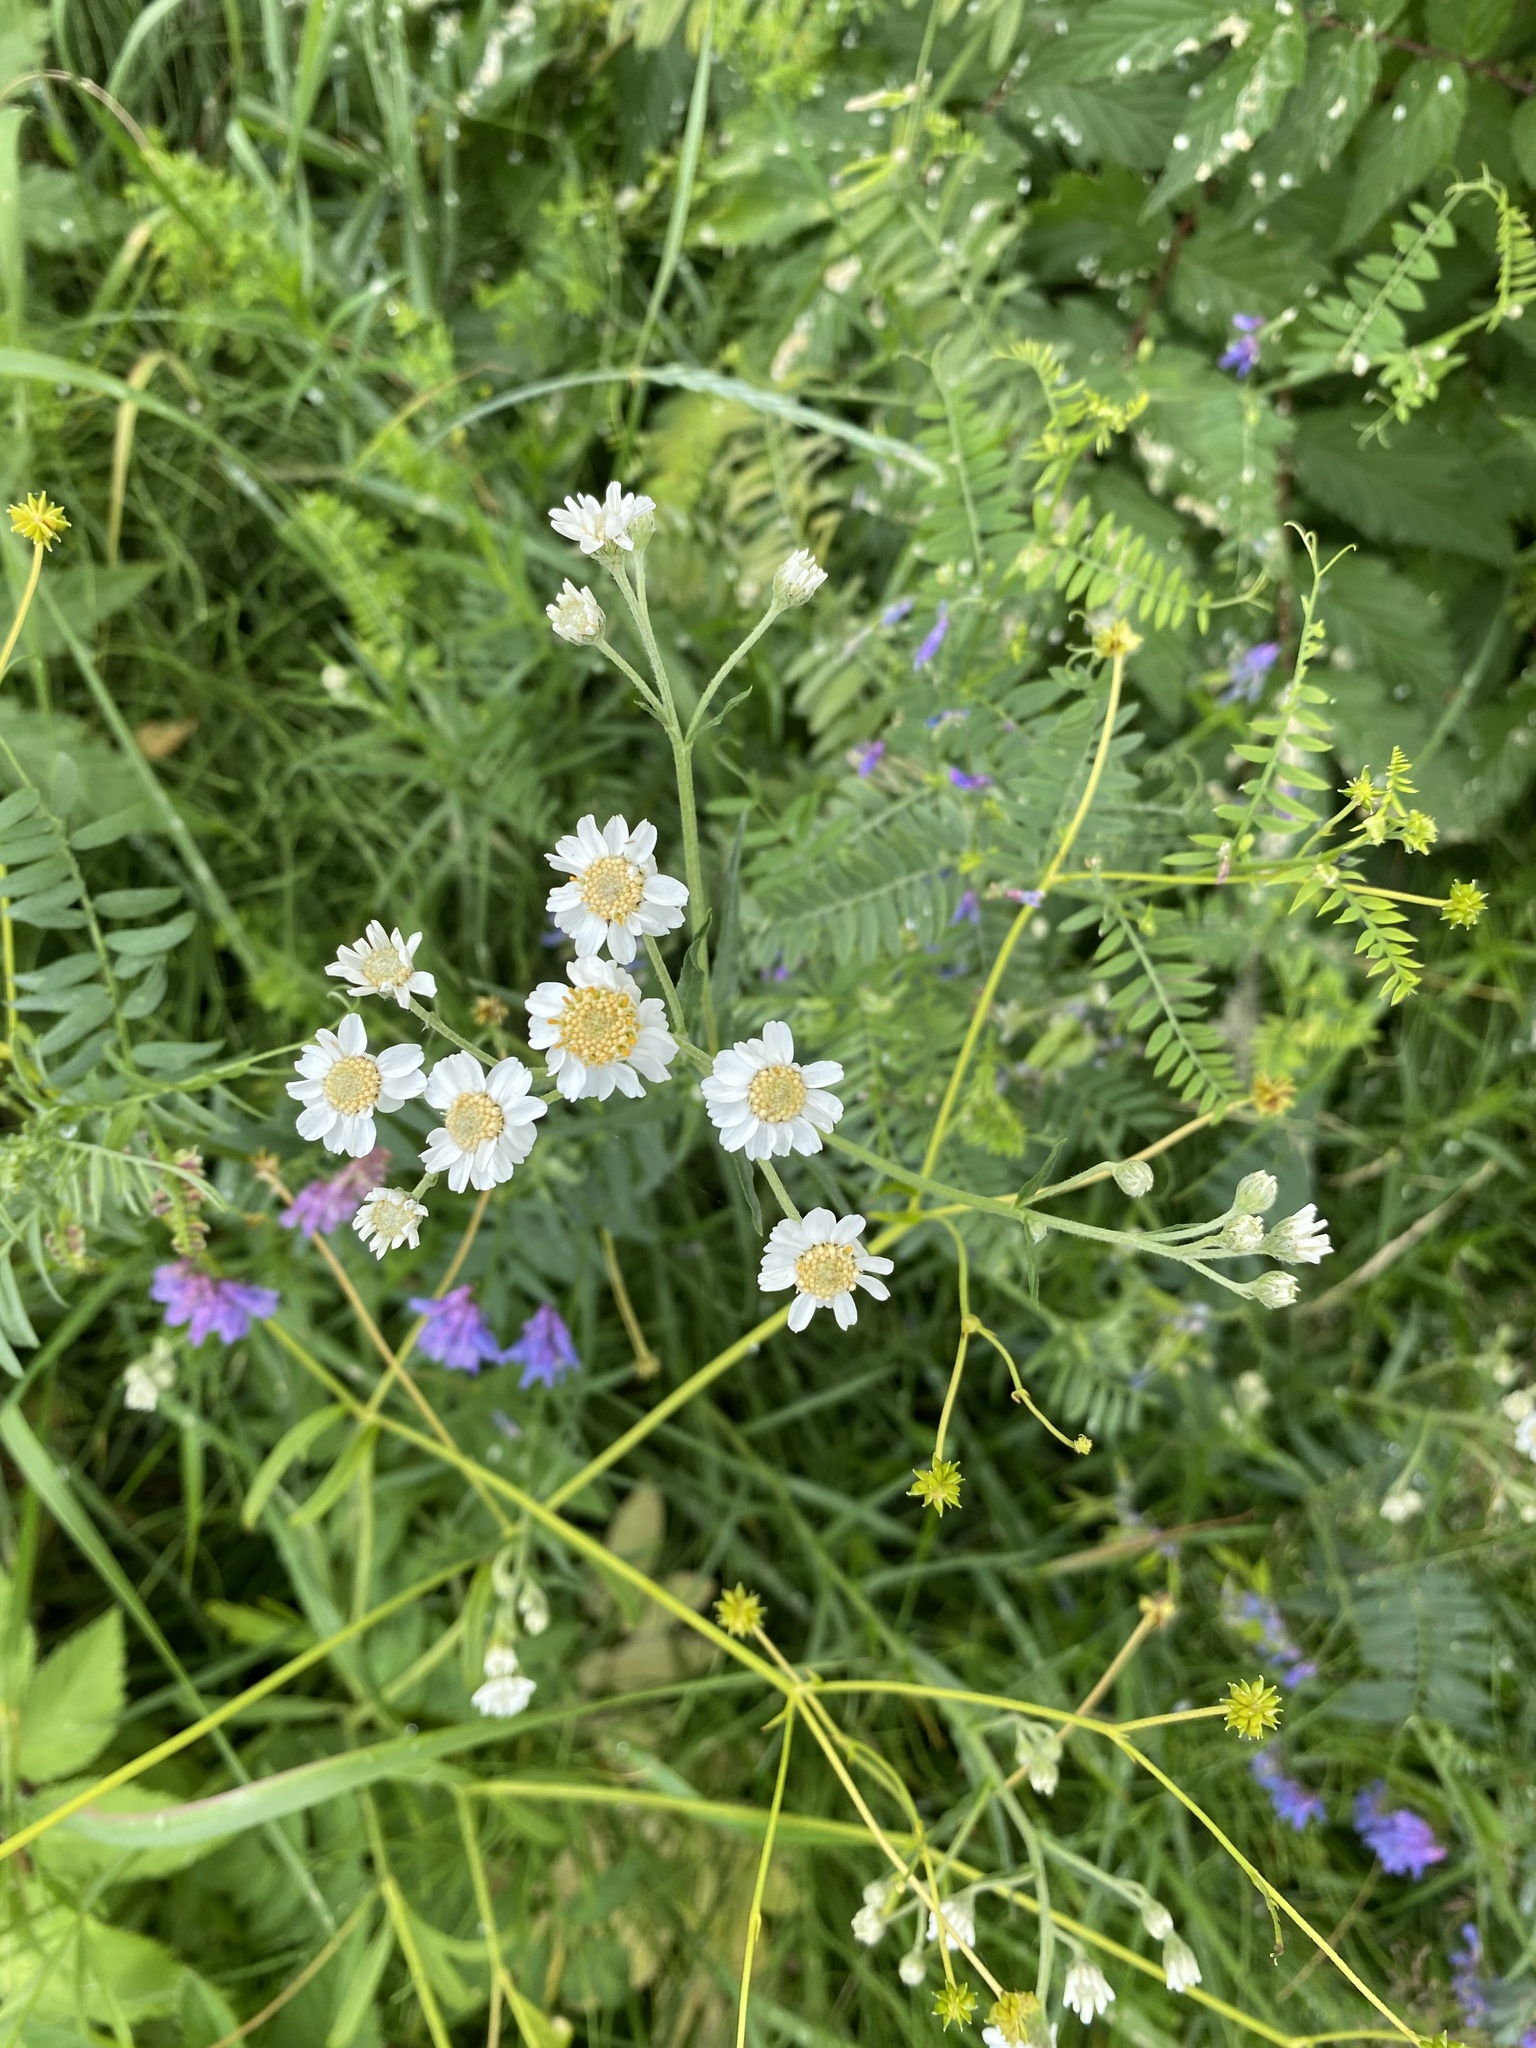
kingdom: Plantae
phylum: Tracheophyta
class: Magnoliopsida
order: Asterales
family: Asteraceae
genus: Achillea
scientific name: Achillea ptarmica
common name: Sneezeweed
